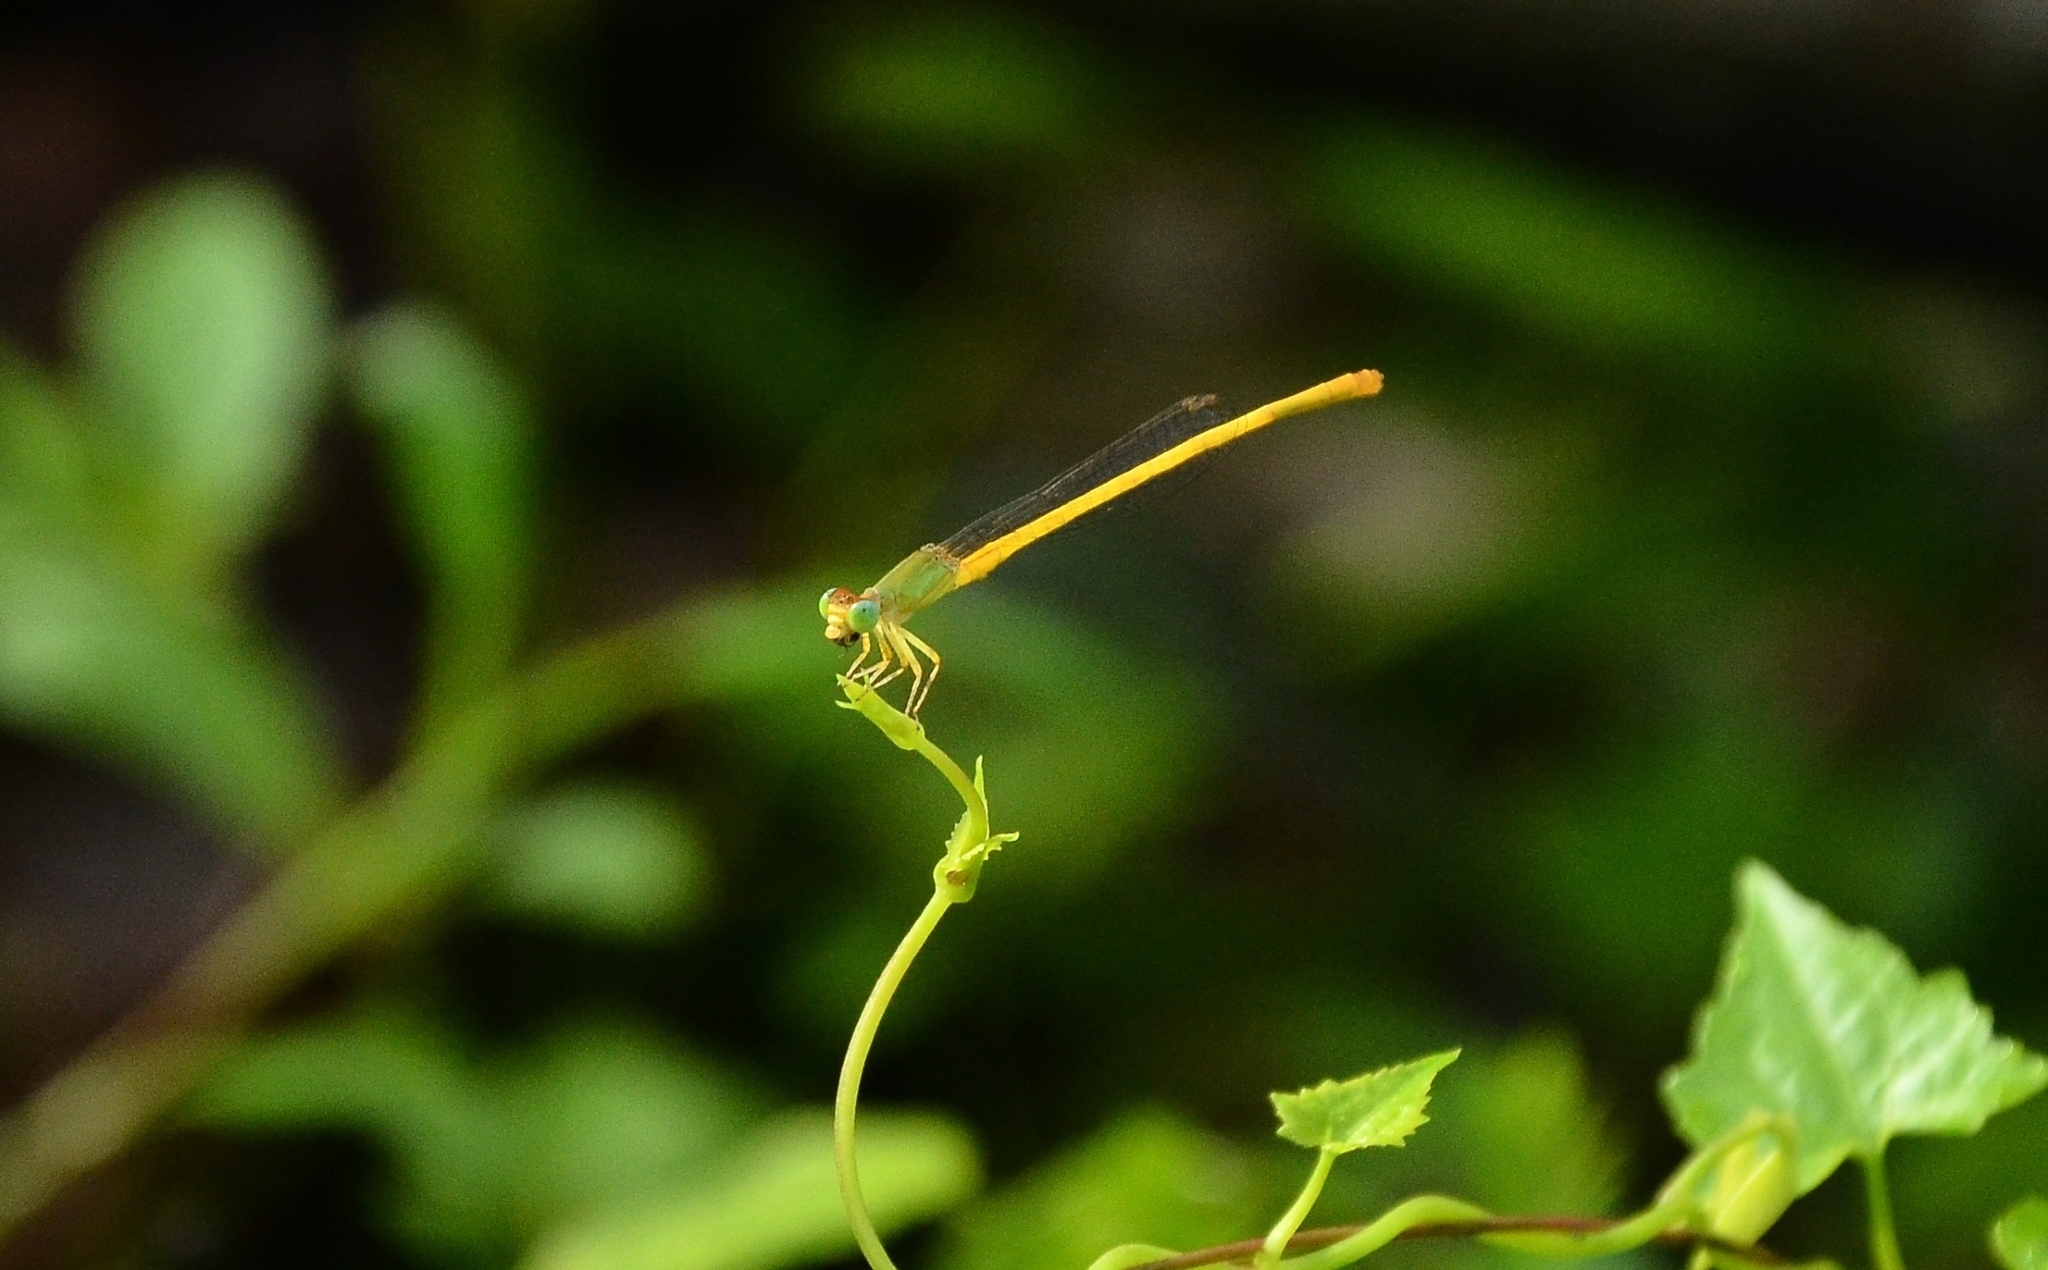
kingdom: Animalia
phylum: Arthropoda
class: Insecta
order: Odonata
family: Coenagrionidae
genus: Ceriagrion
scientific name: Ceriagrion coromandelianum
